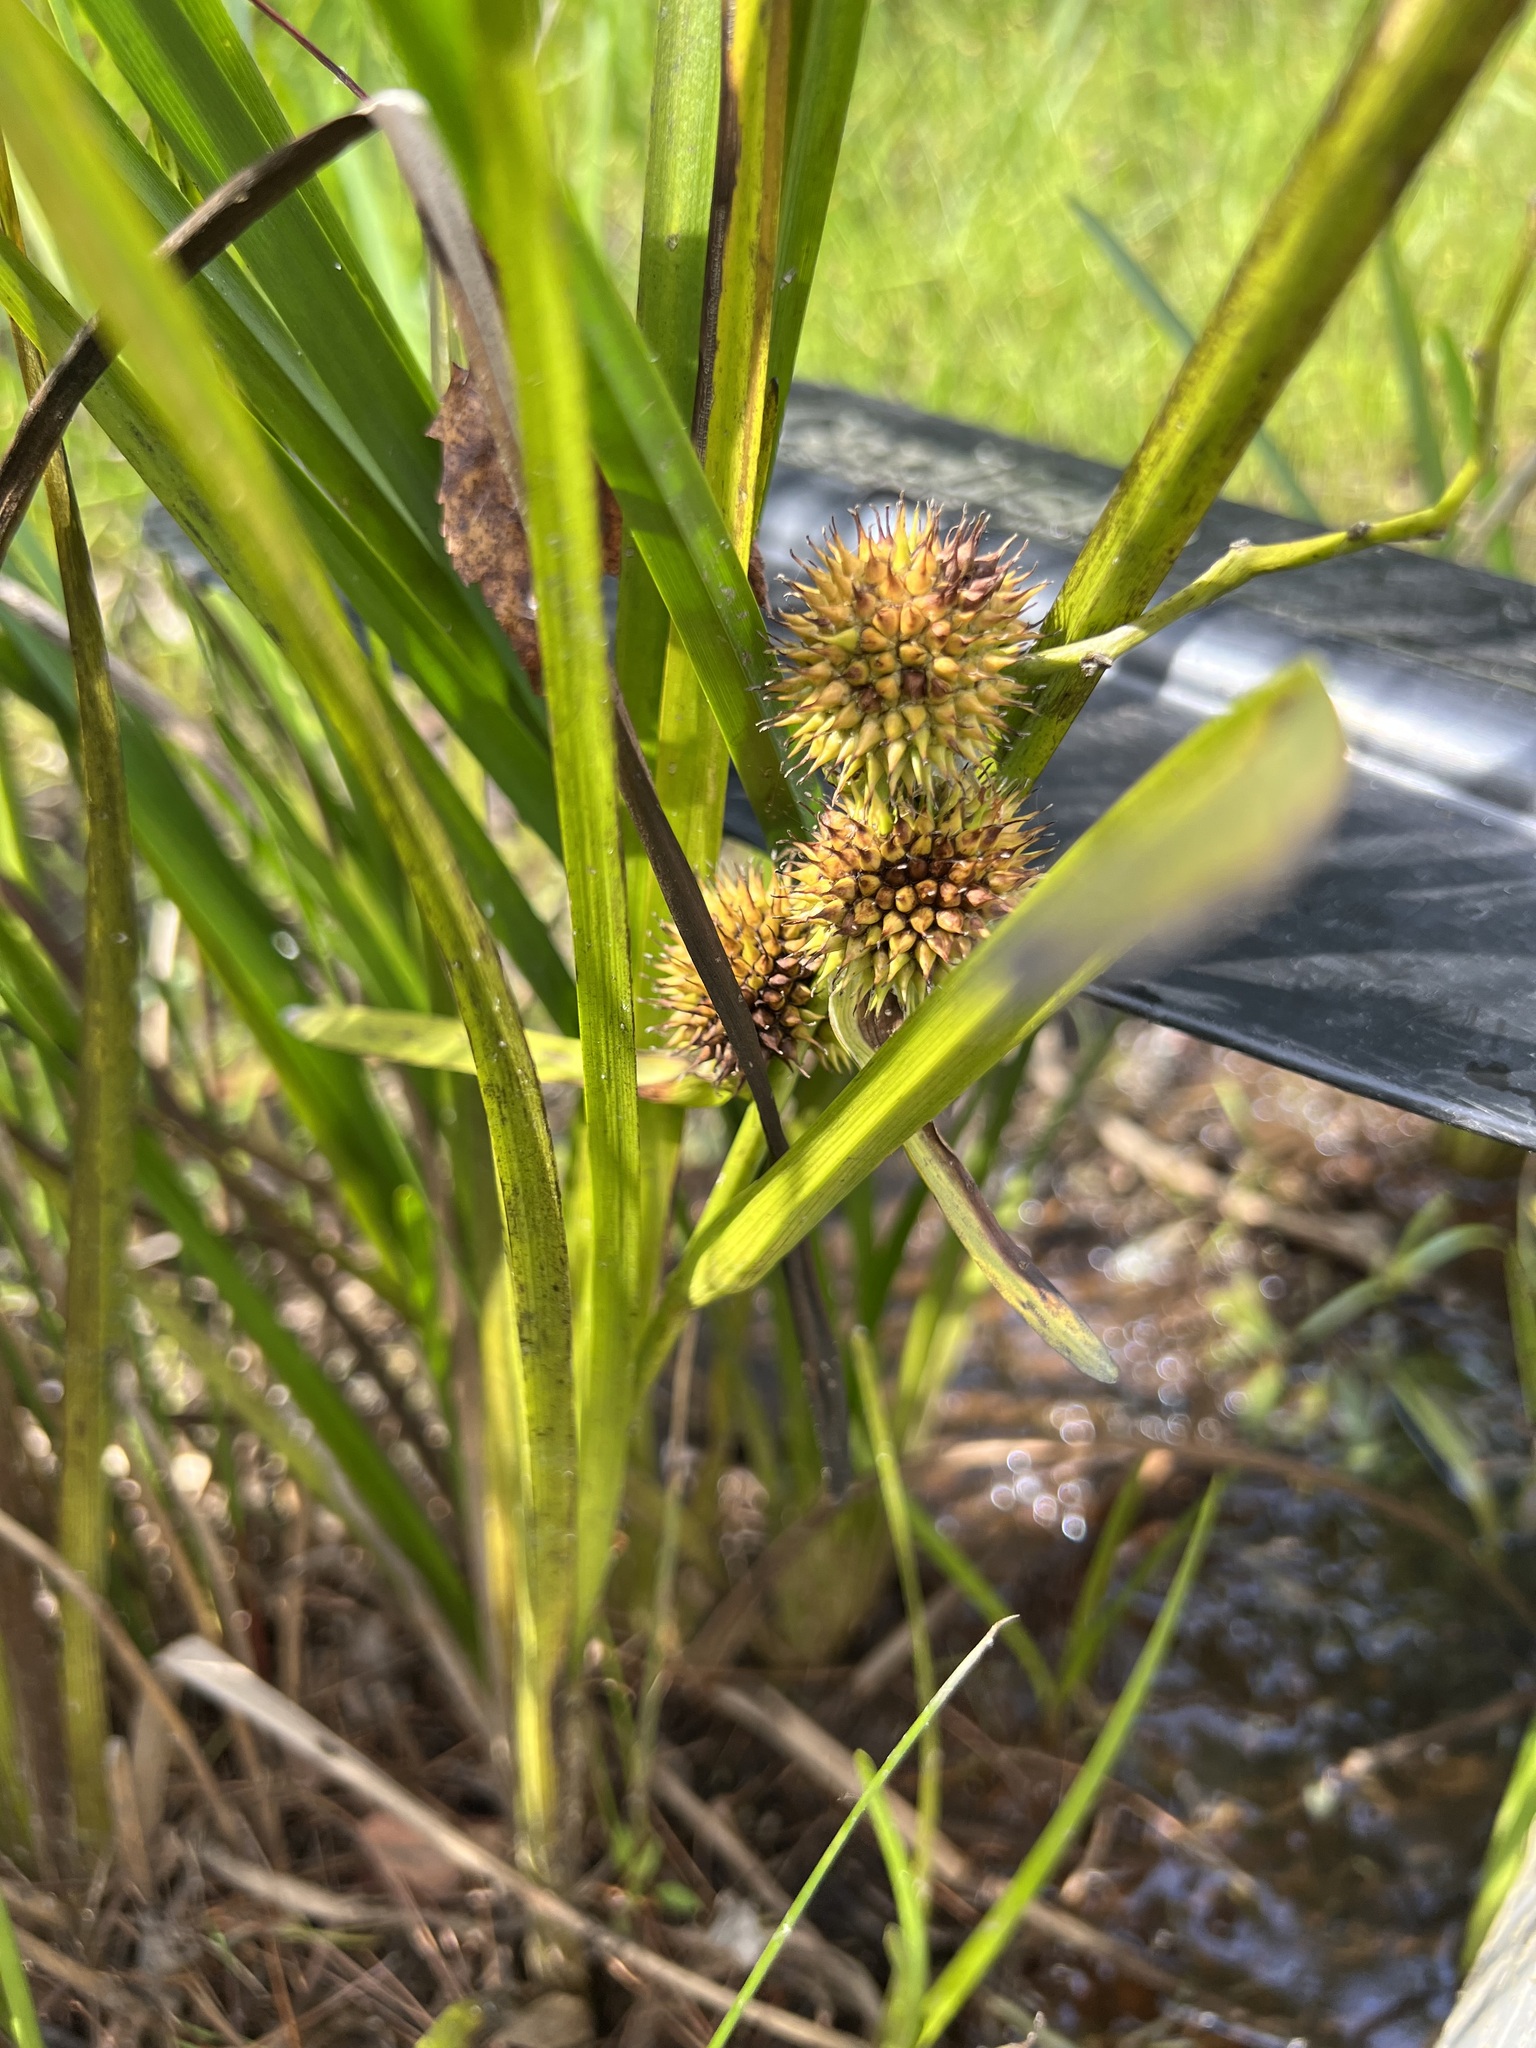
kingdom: Plantae
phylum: Tracheophyta
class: Liliopsida
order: Poales
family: Typhaceae
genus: Sparganium
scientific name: Sparganium americanum
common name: American burreed
